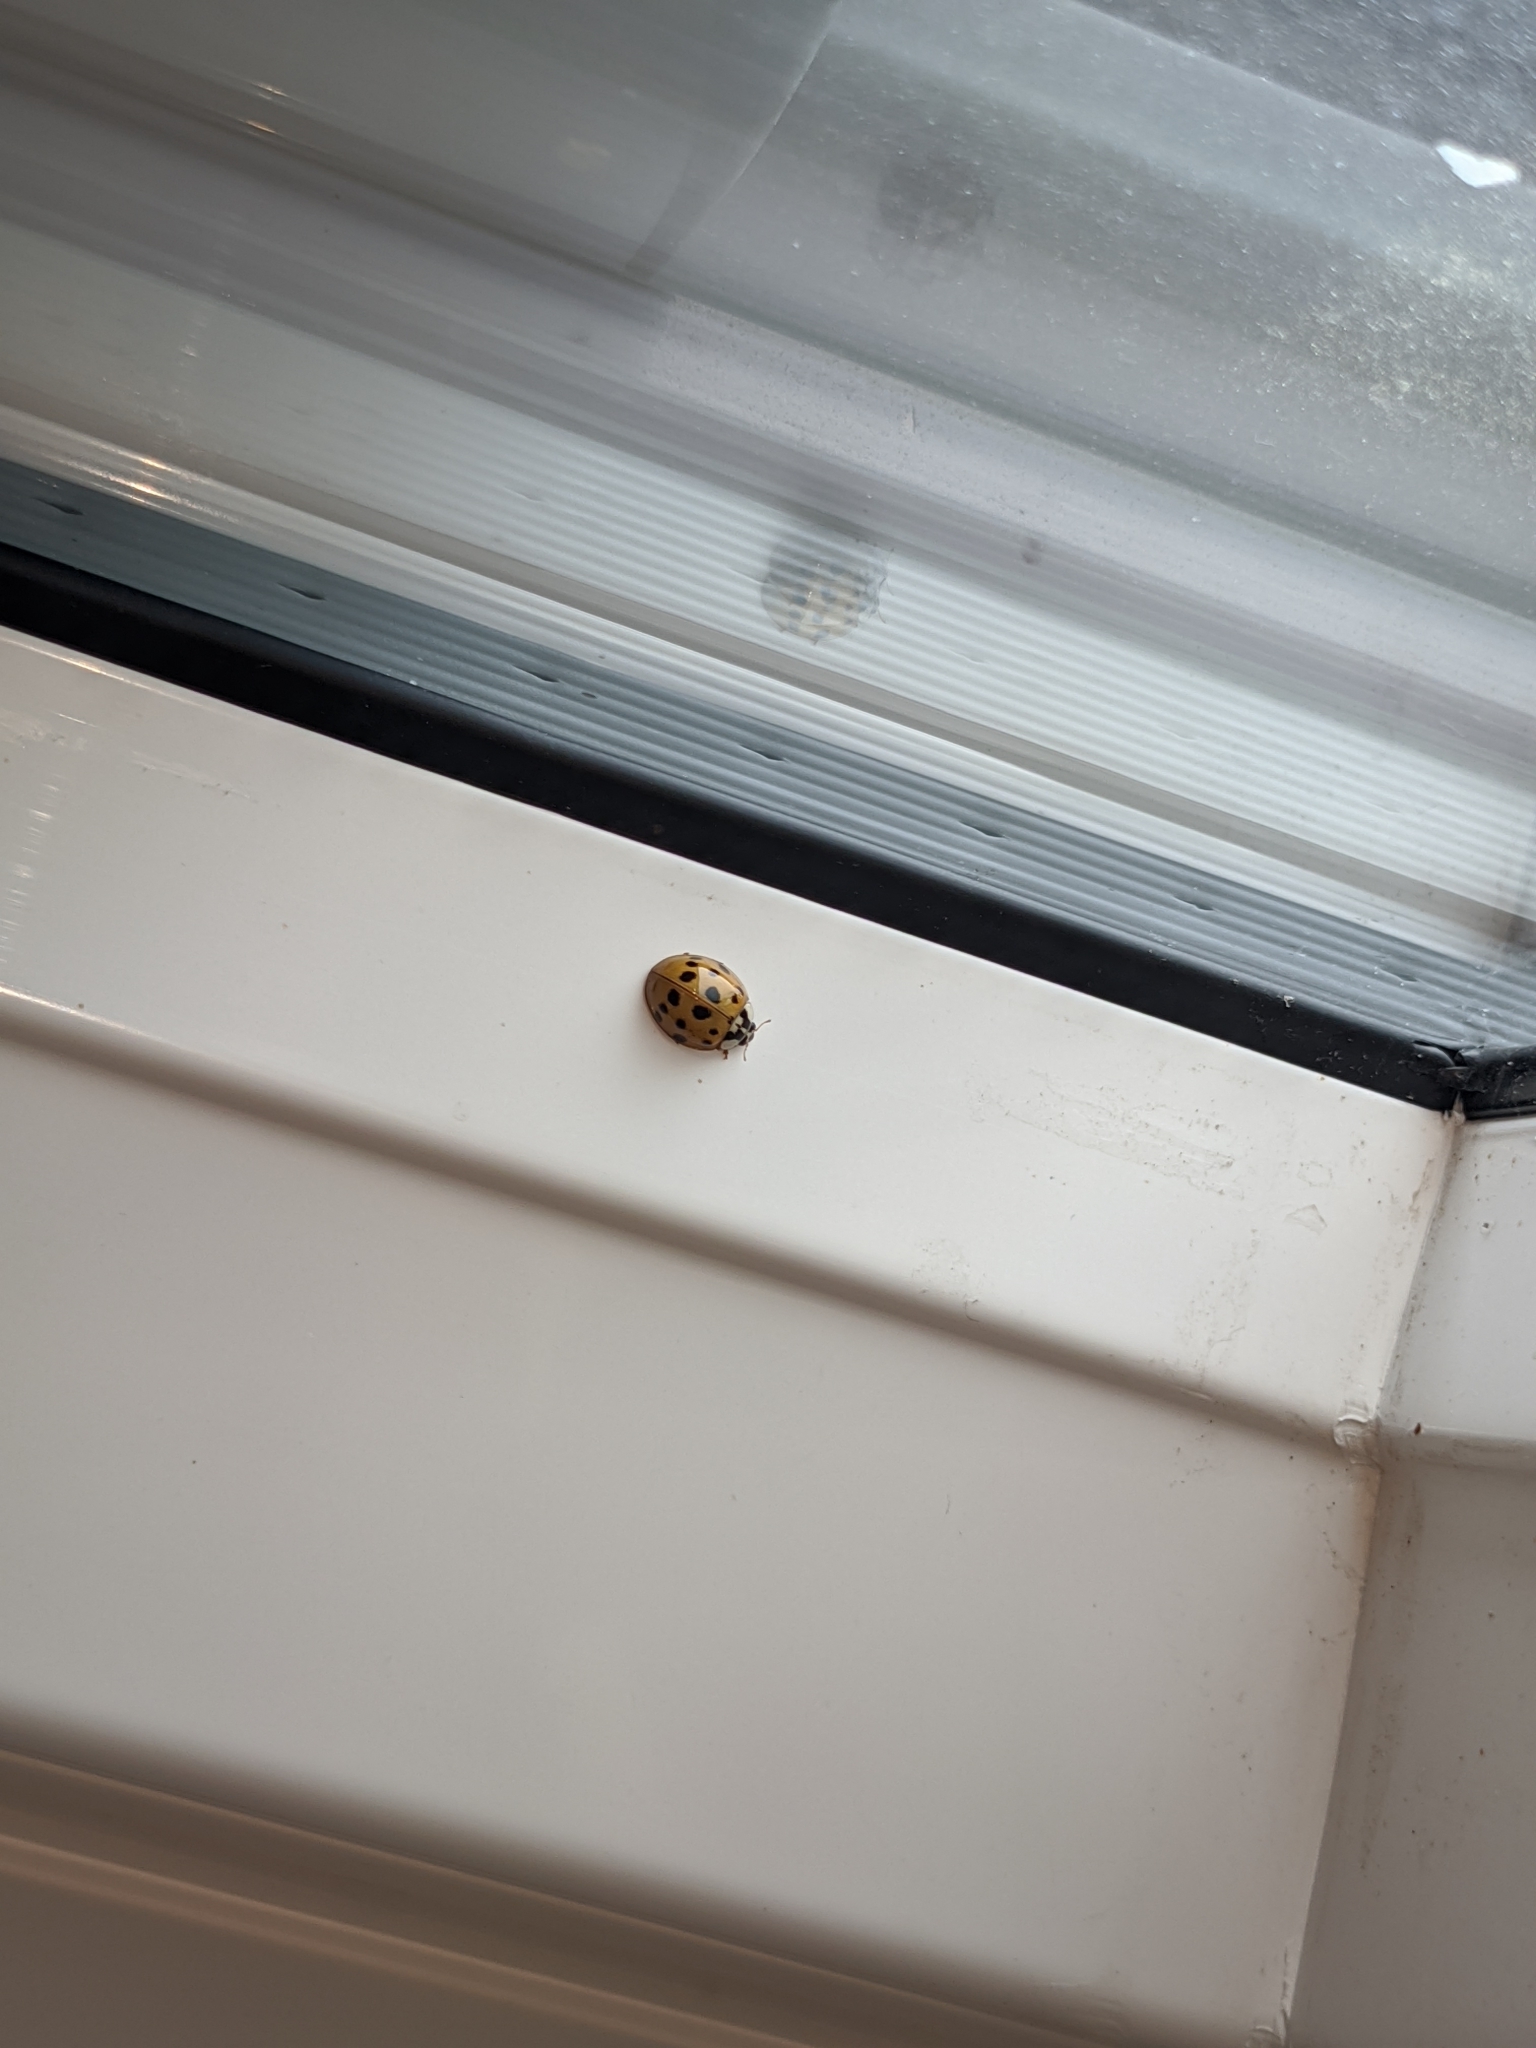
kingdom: Animalia
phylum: Arthropoda
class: Insecta
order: Coleoptera
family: Coccinellidae
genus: Harmonia
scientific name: Harmonia axyridis
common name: Harlequin ladybird
